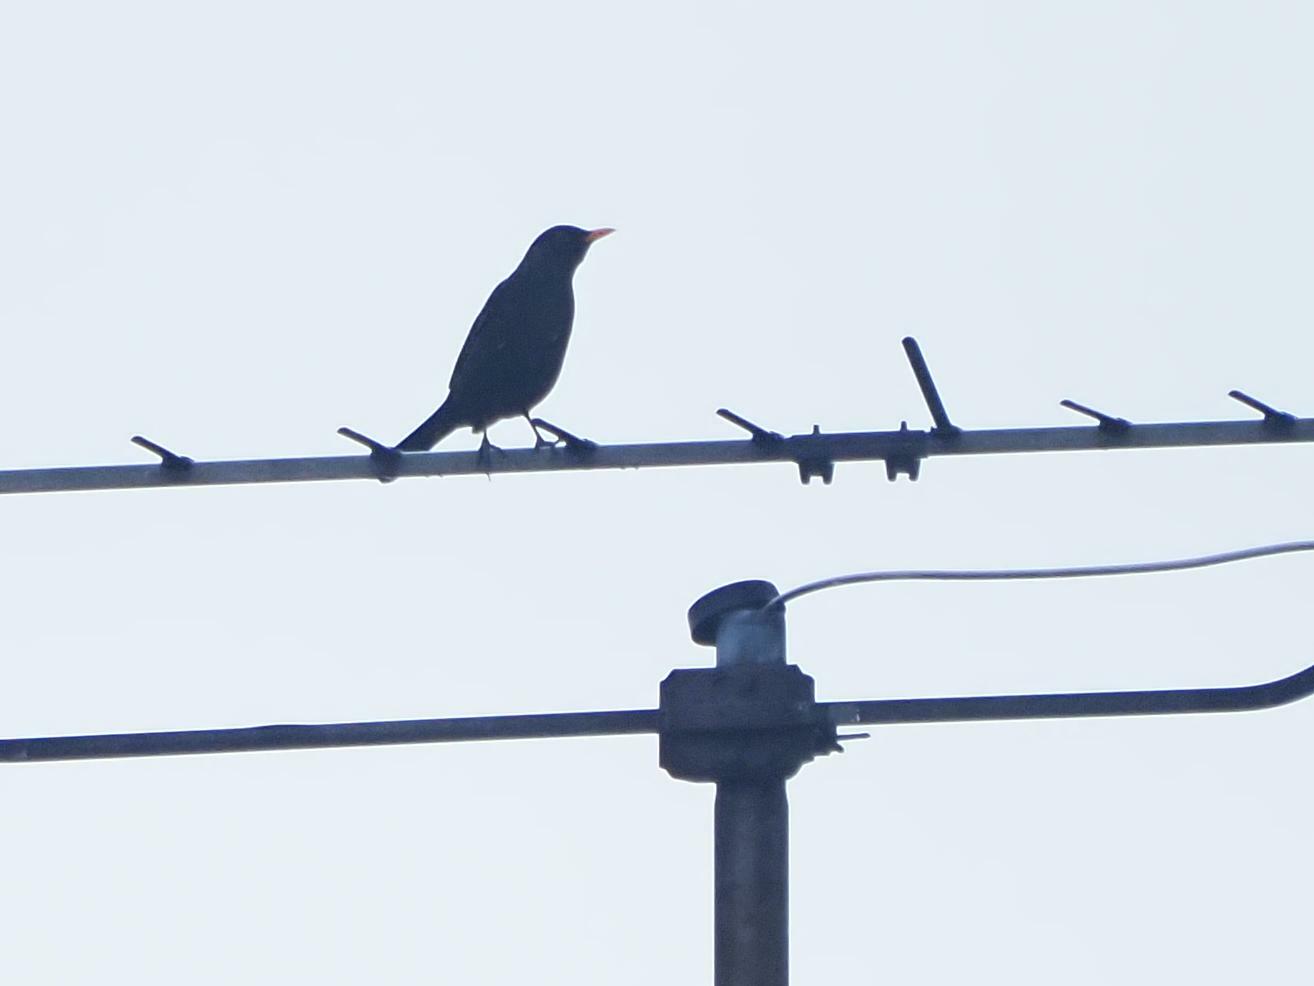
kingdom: Animalia
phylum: Chordata
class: Aves
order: Passeriformes
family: Turdidae
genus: Turdus
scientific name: Turdus merula
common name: Common blackbird
